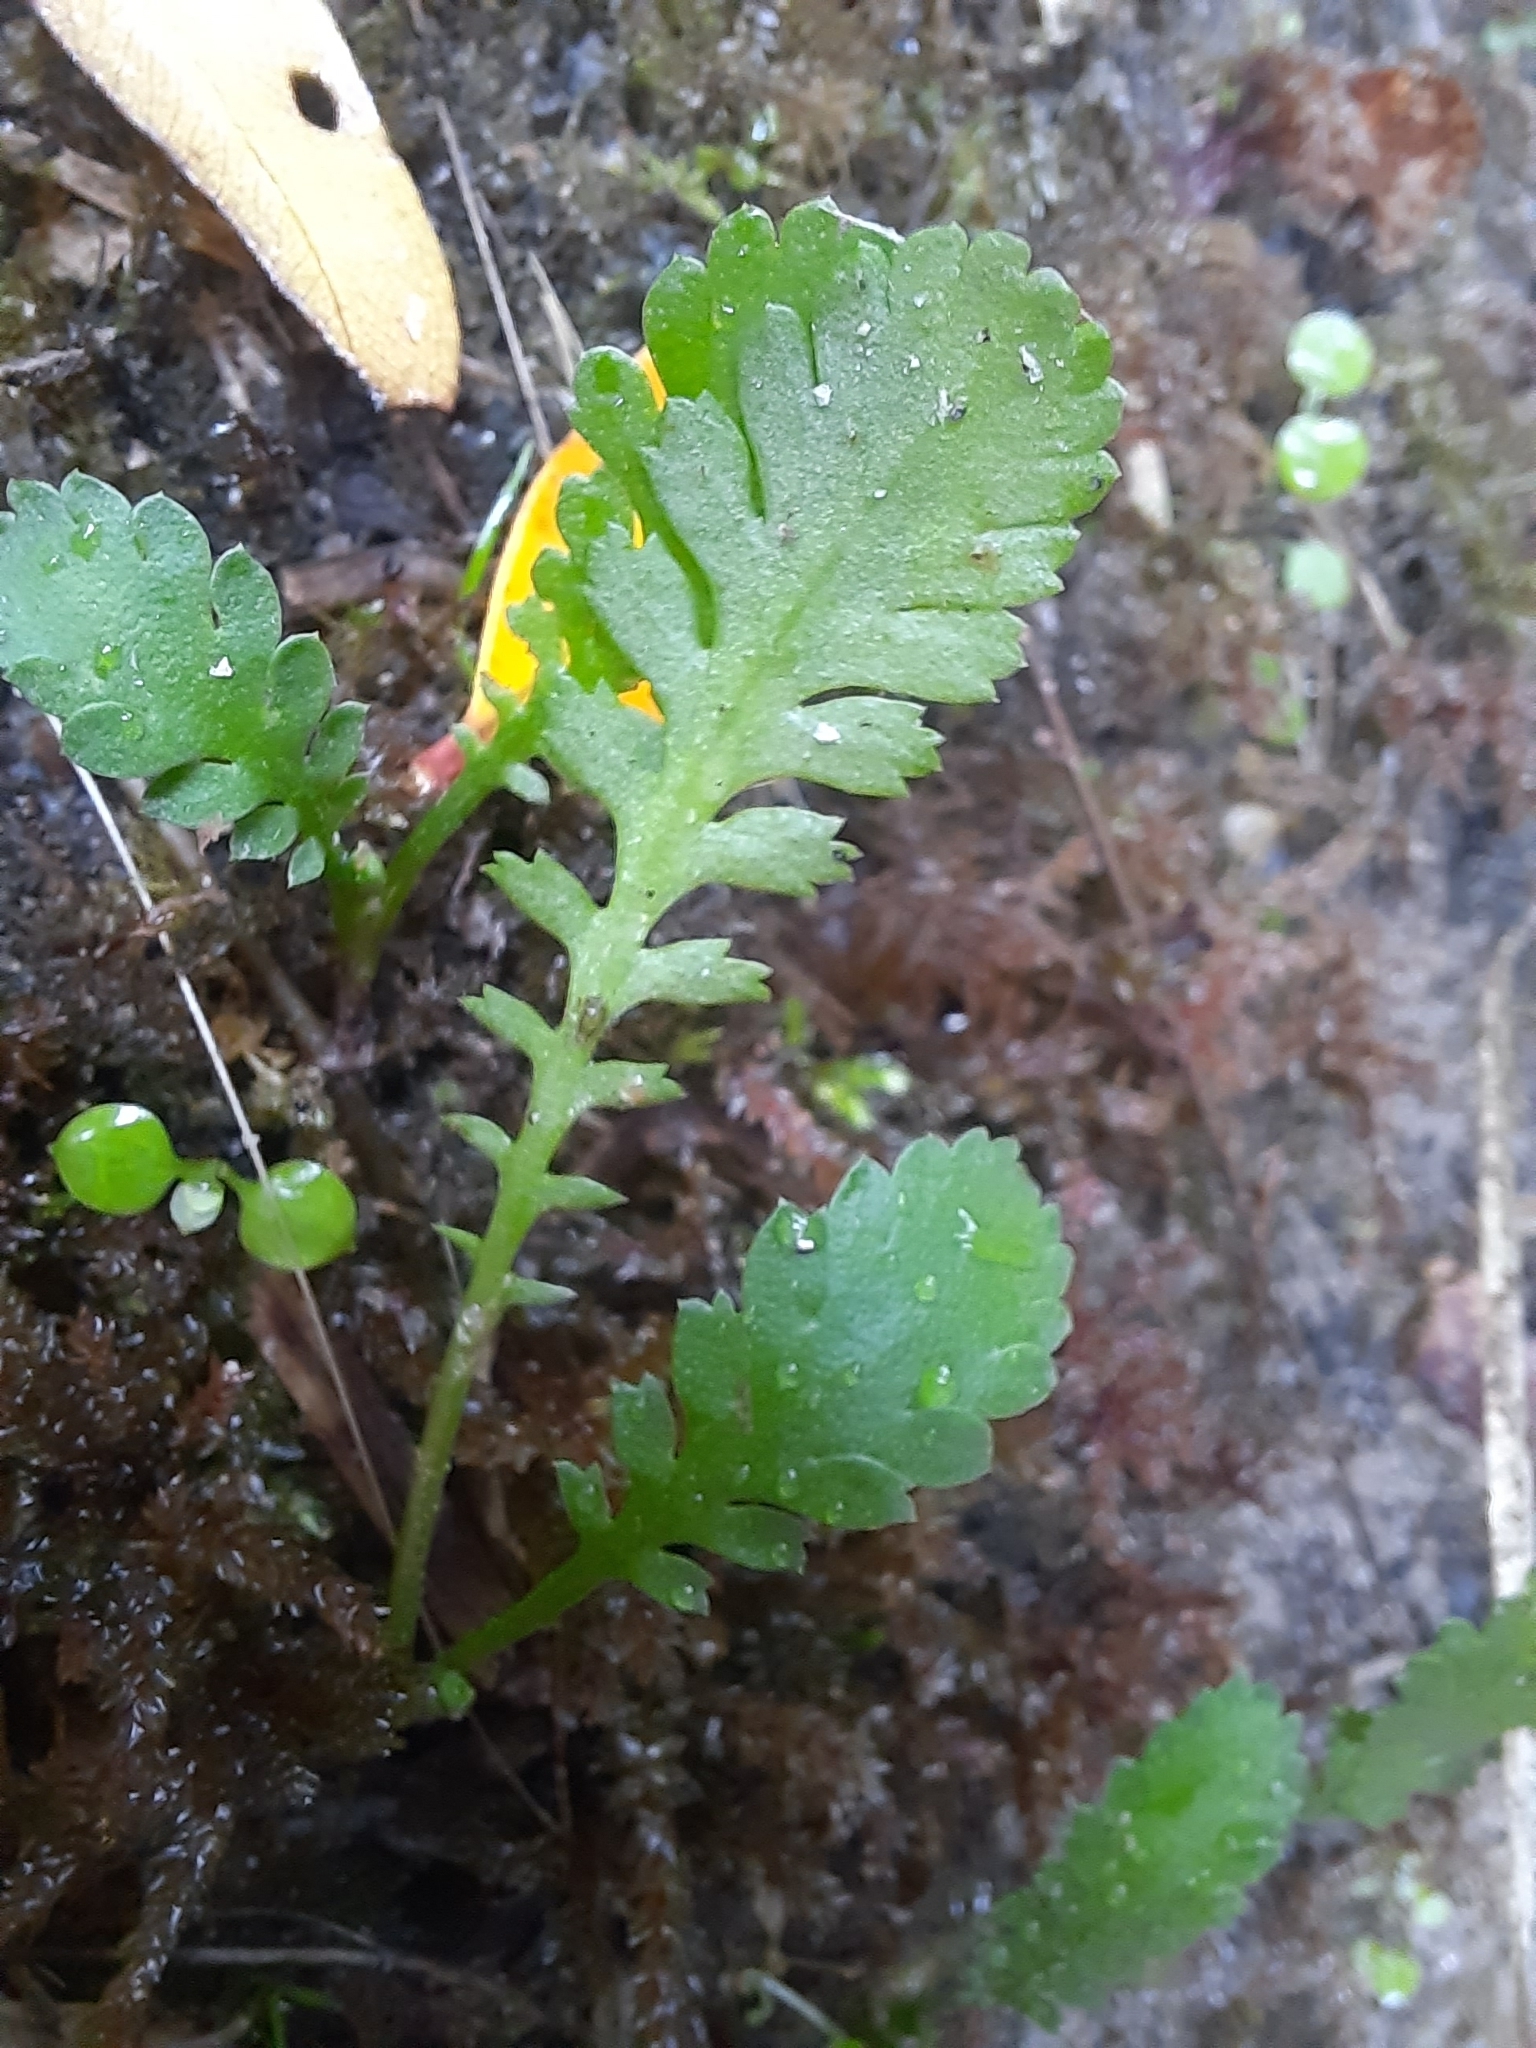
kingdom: Plantae
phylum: Tracheophyta
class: Magnoliopsida
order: Asterales
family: Asteraceae
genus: Leptinella
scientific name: Leptinella dioica
